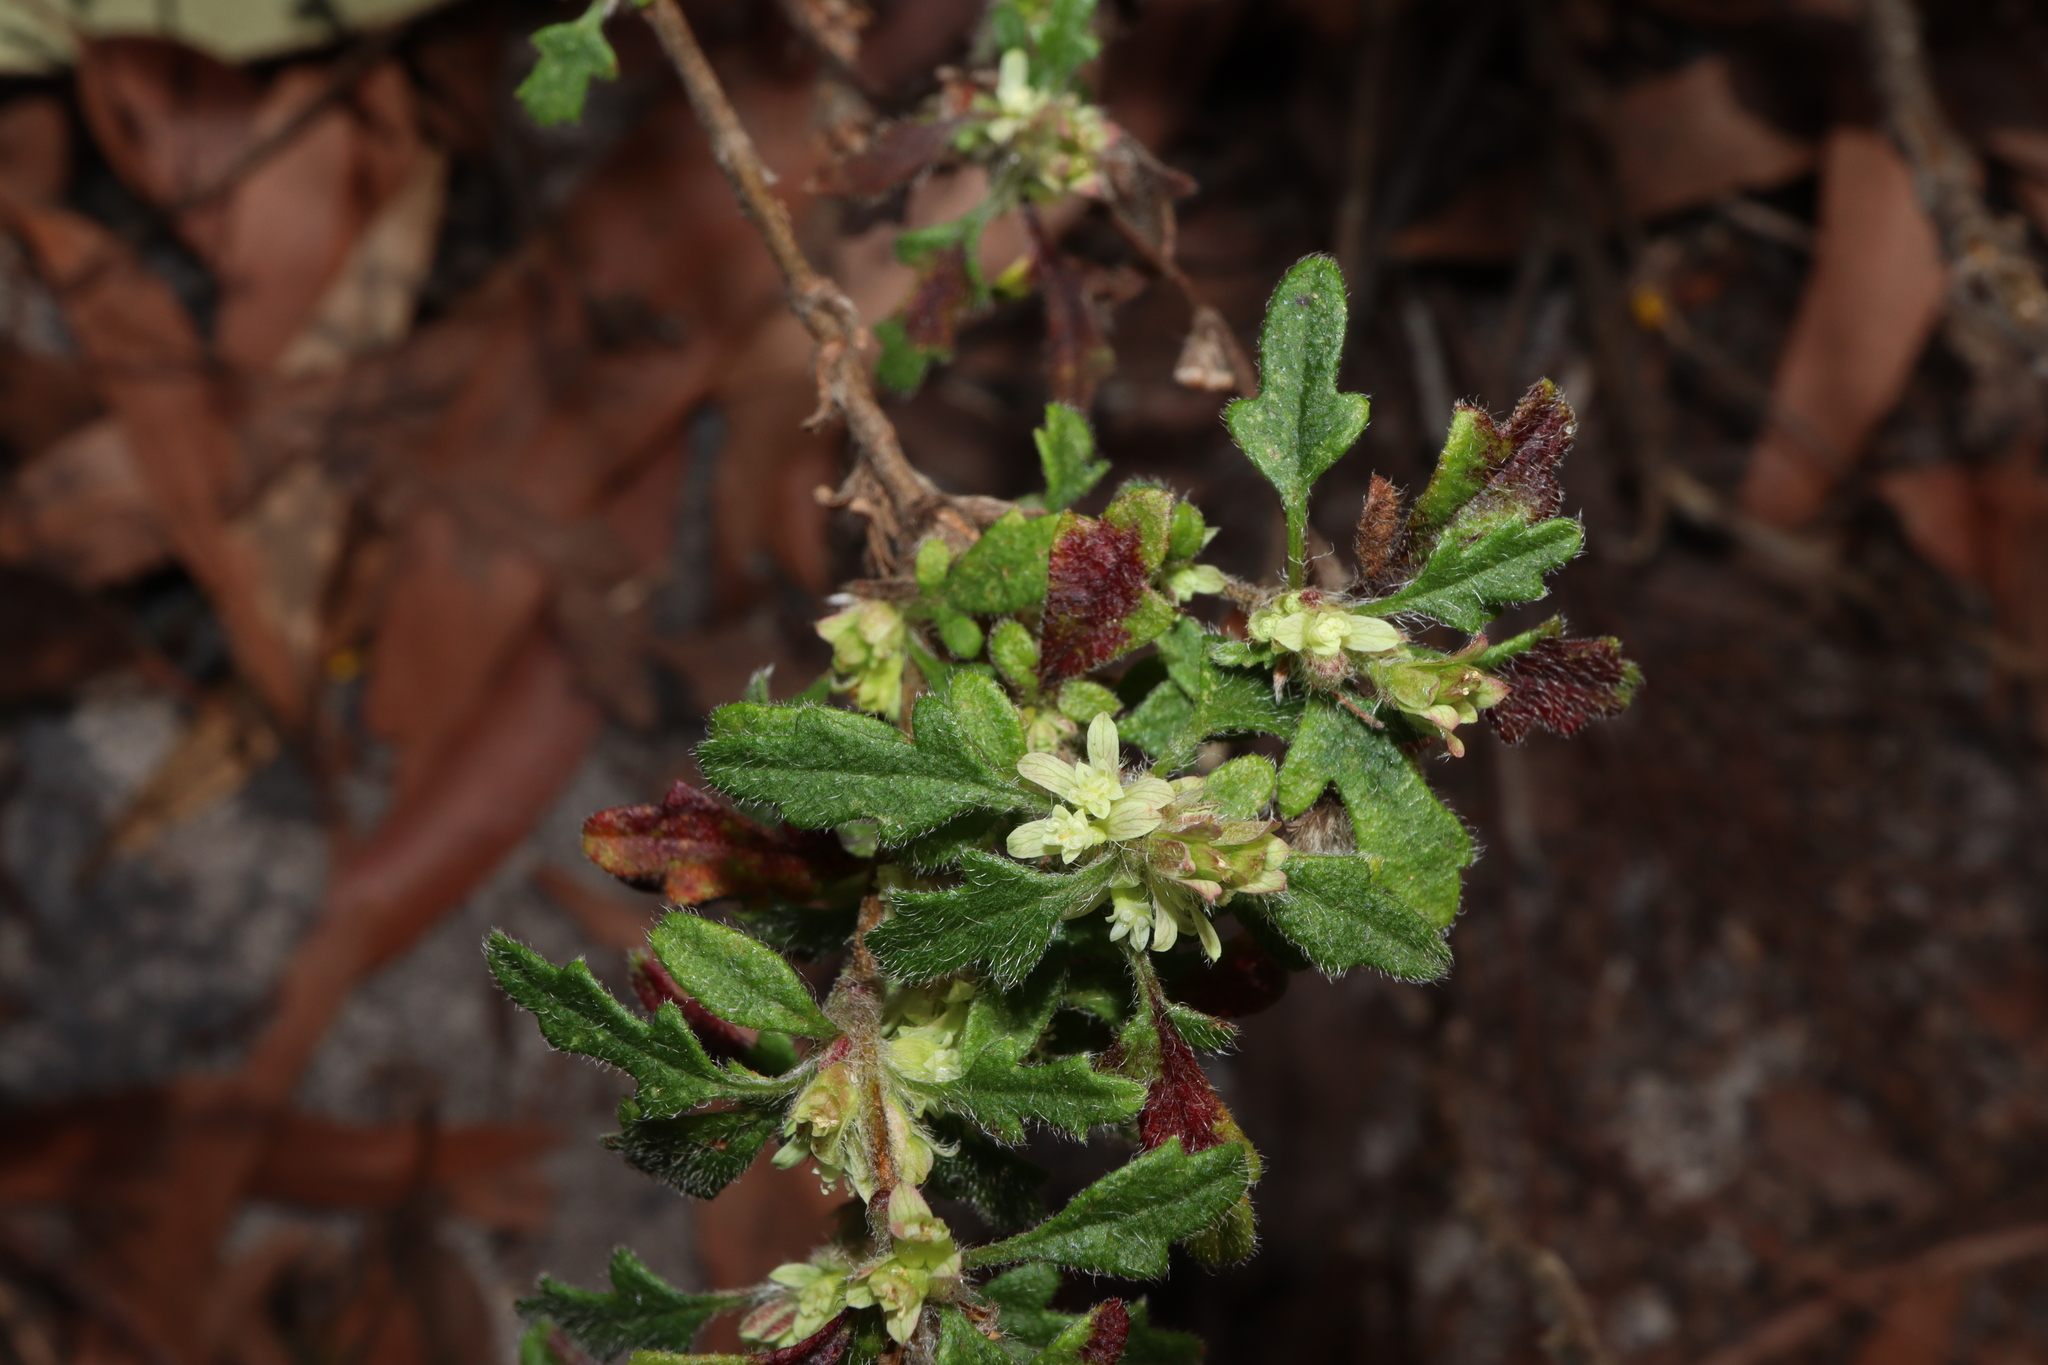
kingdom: Plantae
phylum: Tracheophyta
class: Magnoliopsida
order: Apiales
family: Apiaceae
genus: Xanthosia
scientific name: Xanthosia pilosa
